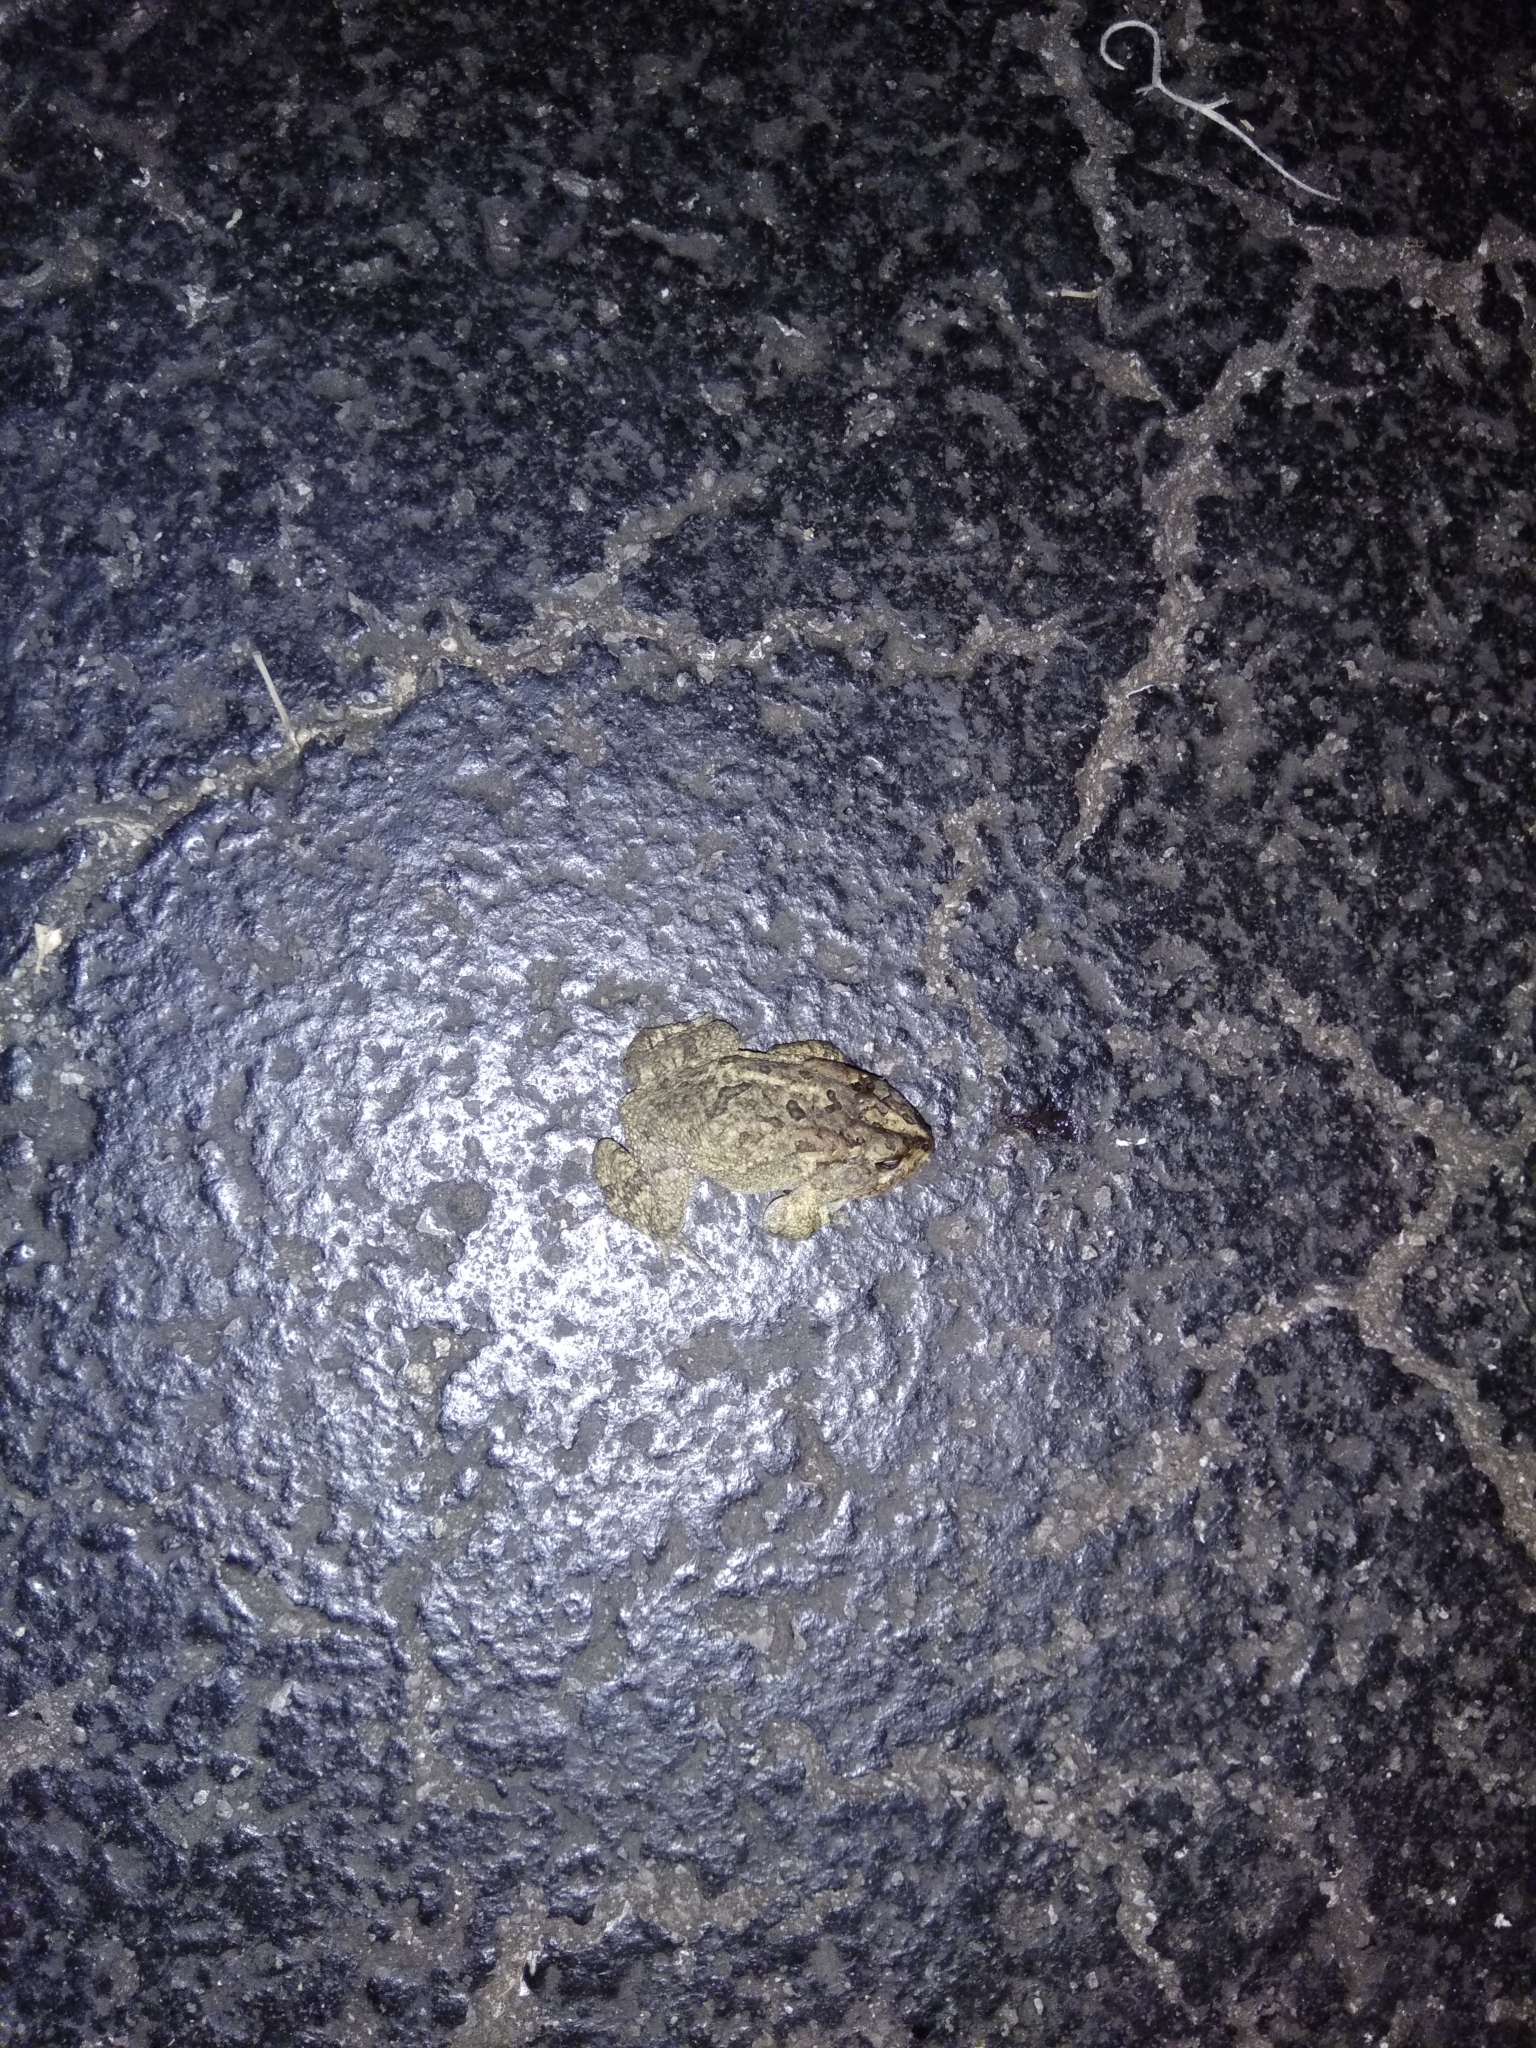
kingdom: Animalia
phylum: Chordata
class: Amphibia
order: Anura
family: Bufonidae
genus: Anaxyrus
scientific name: Anaxyrus terrestris
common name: Southern toad
